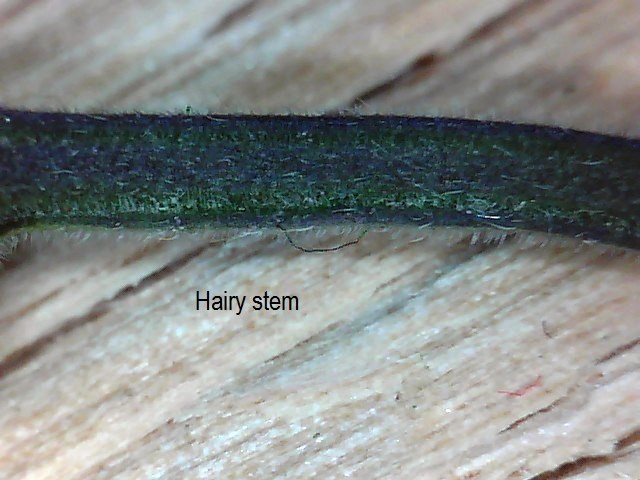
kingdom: Plantae
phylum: Tracheophyta
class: Magnoliopsida
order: Solanales
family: Solanaceae
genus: Solanum
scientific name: Solanum dulcamara
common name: Climbing nightshade
